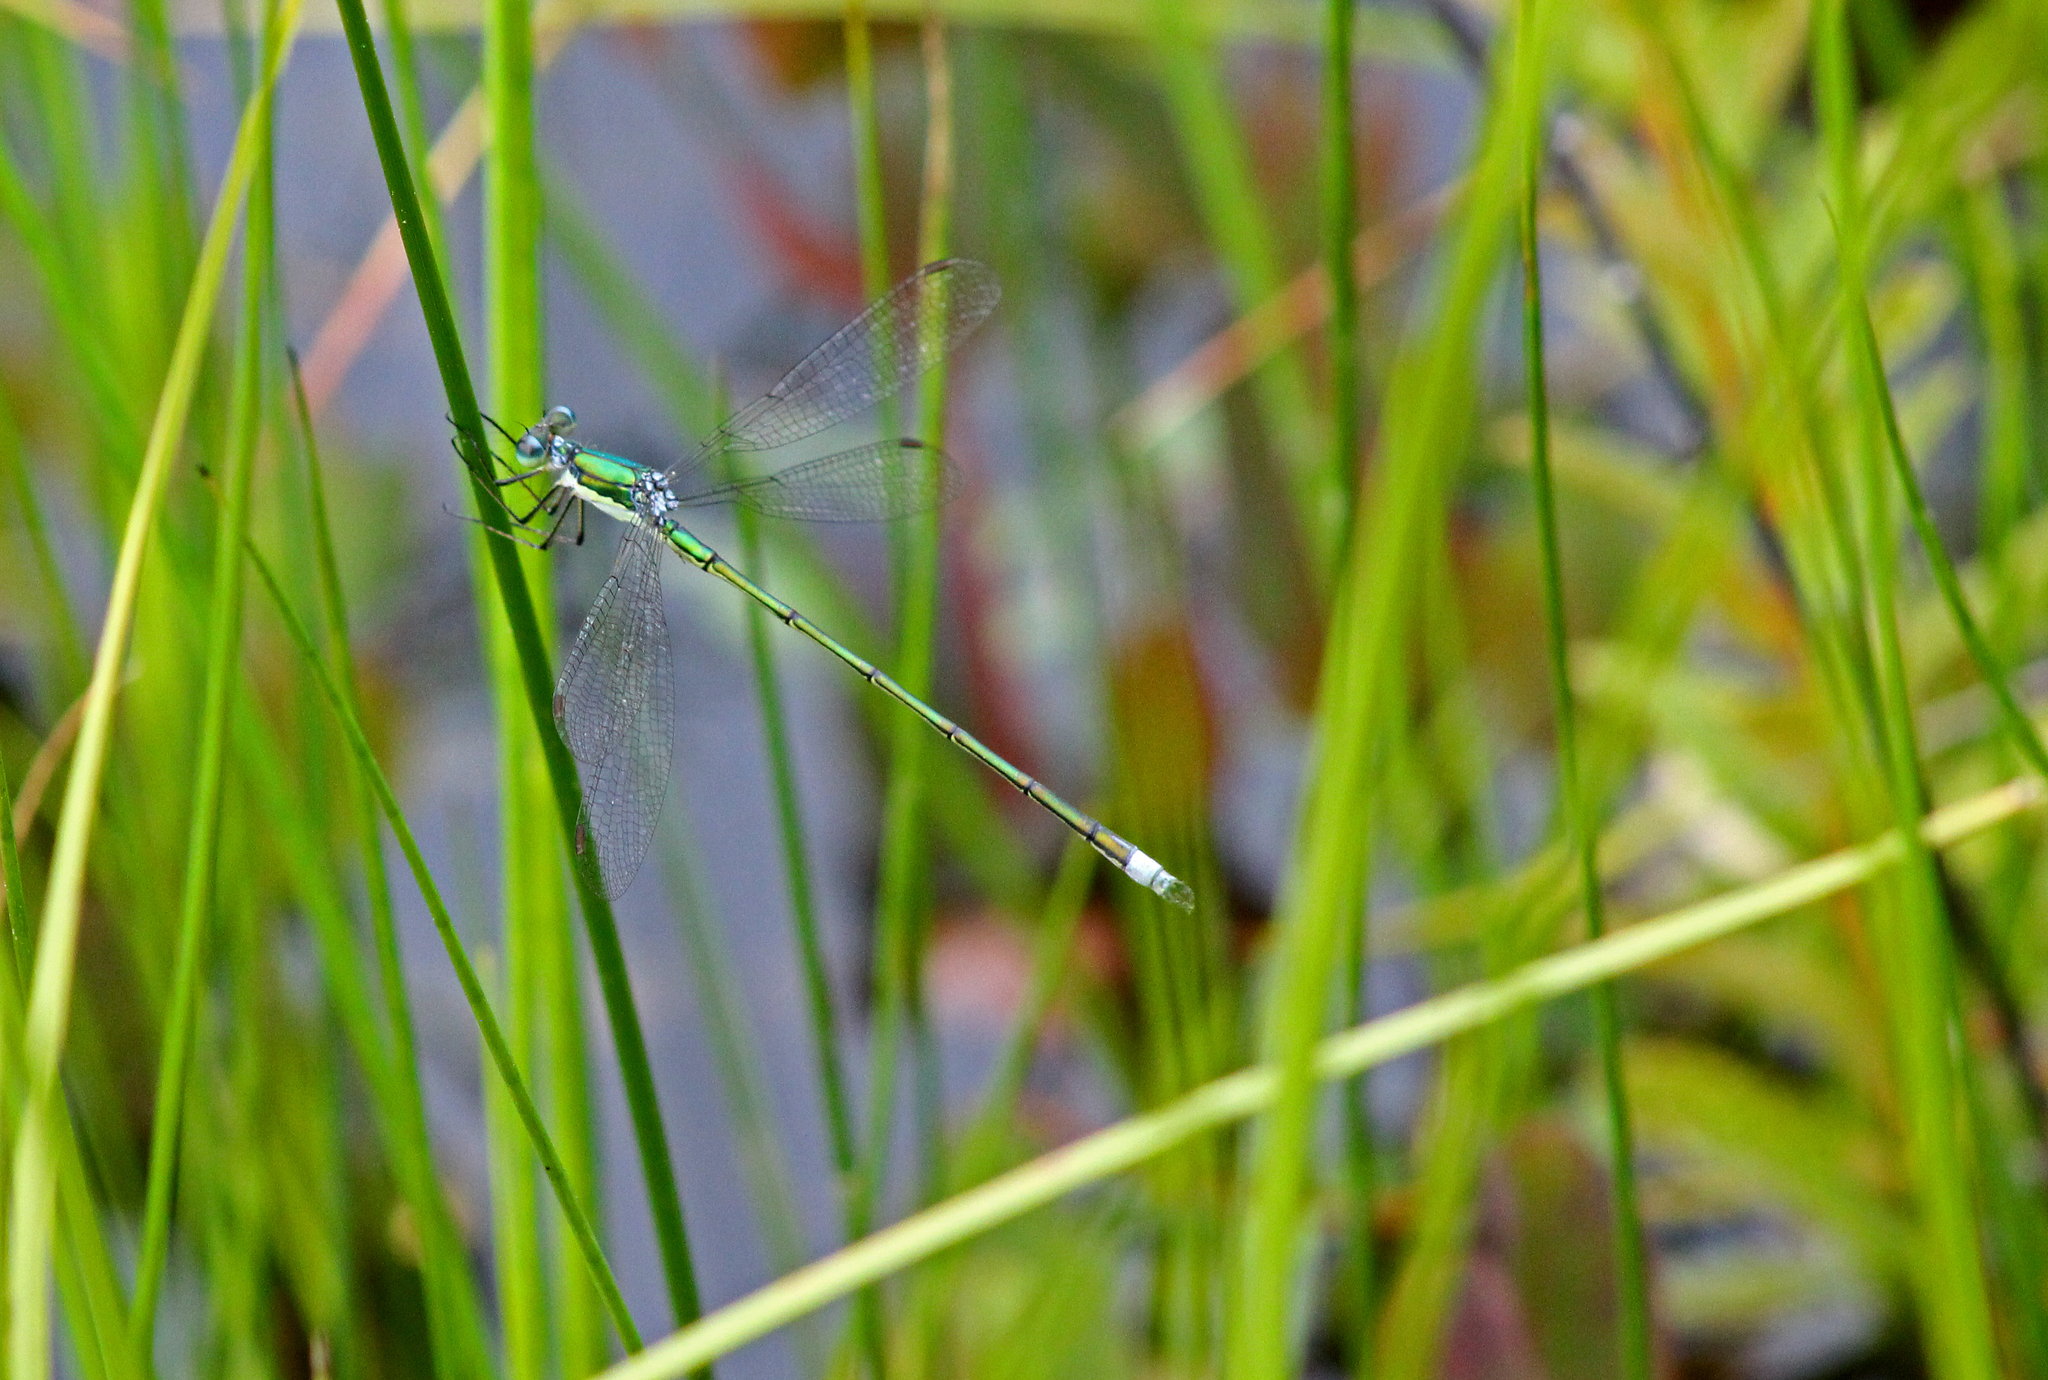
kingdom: Animalia
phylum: Arthropoda
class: Insecta
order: Odonata
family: Lestidae
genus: Lestes
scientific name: Lestes inaequalis
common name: Elegant spreadwing
